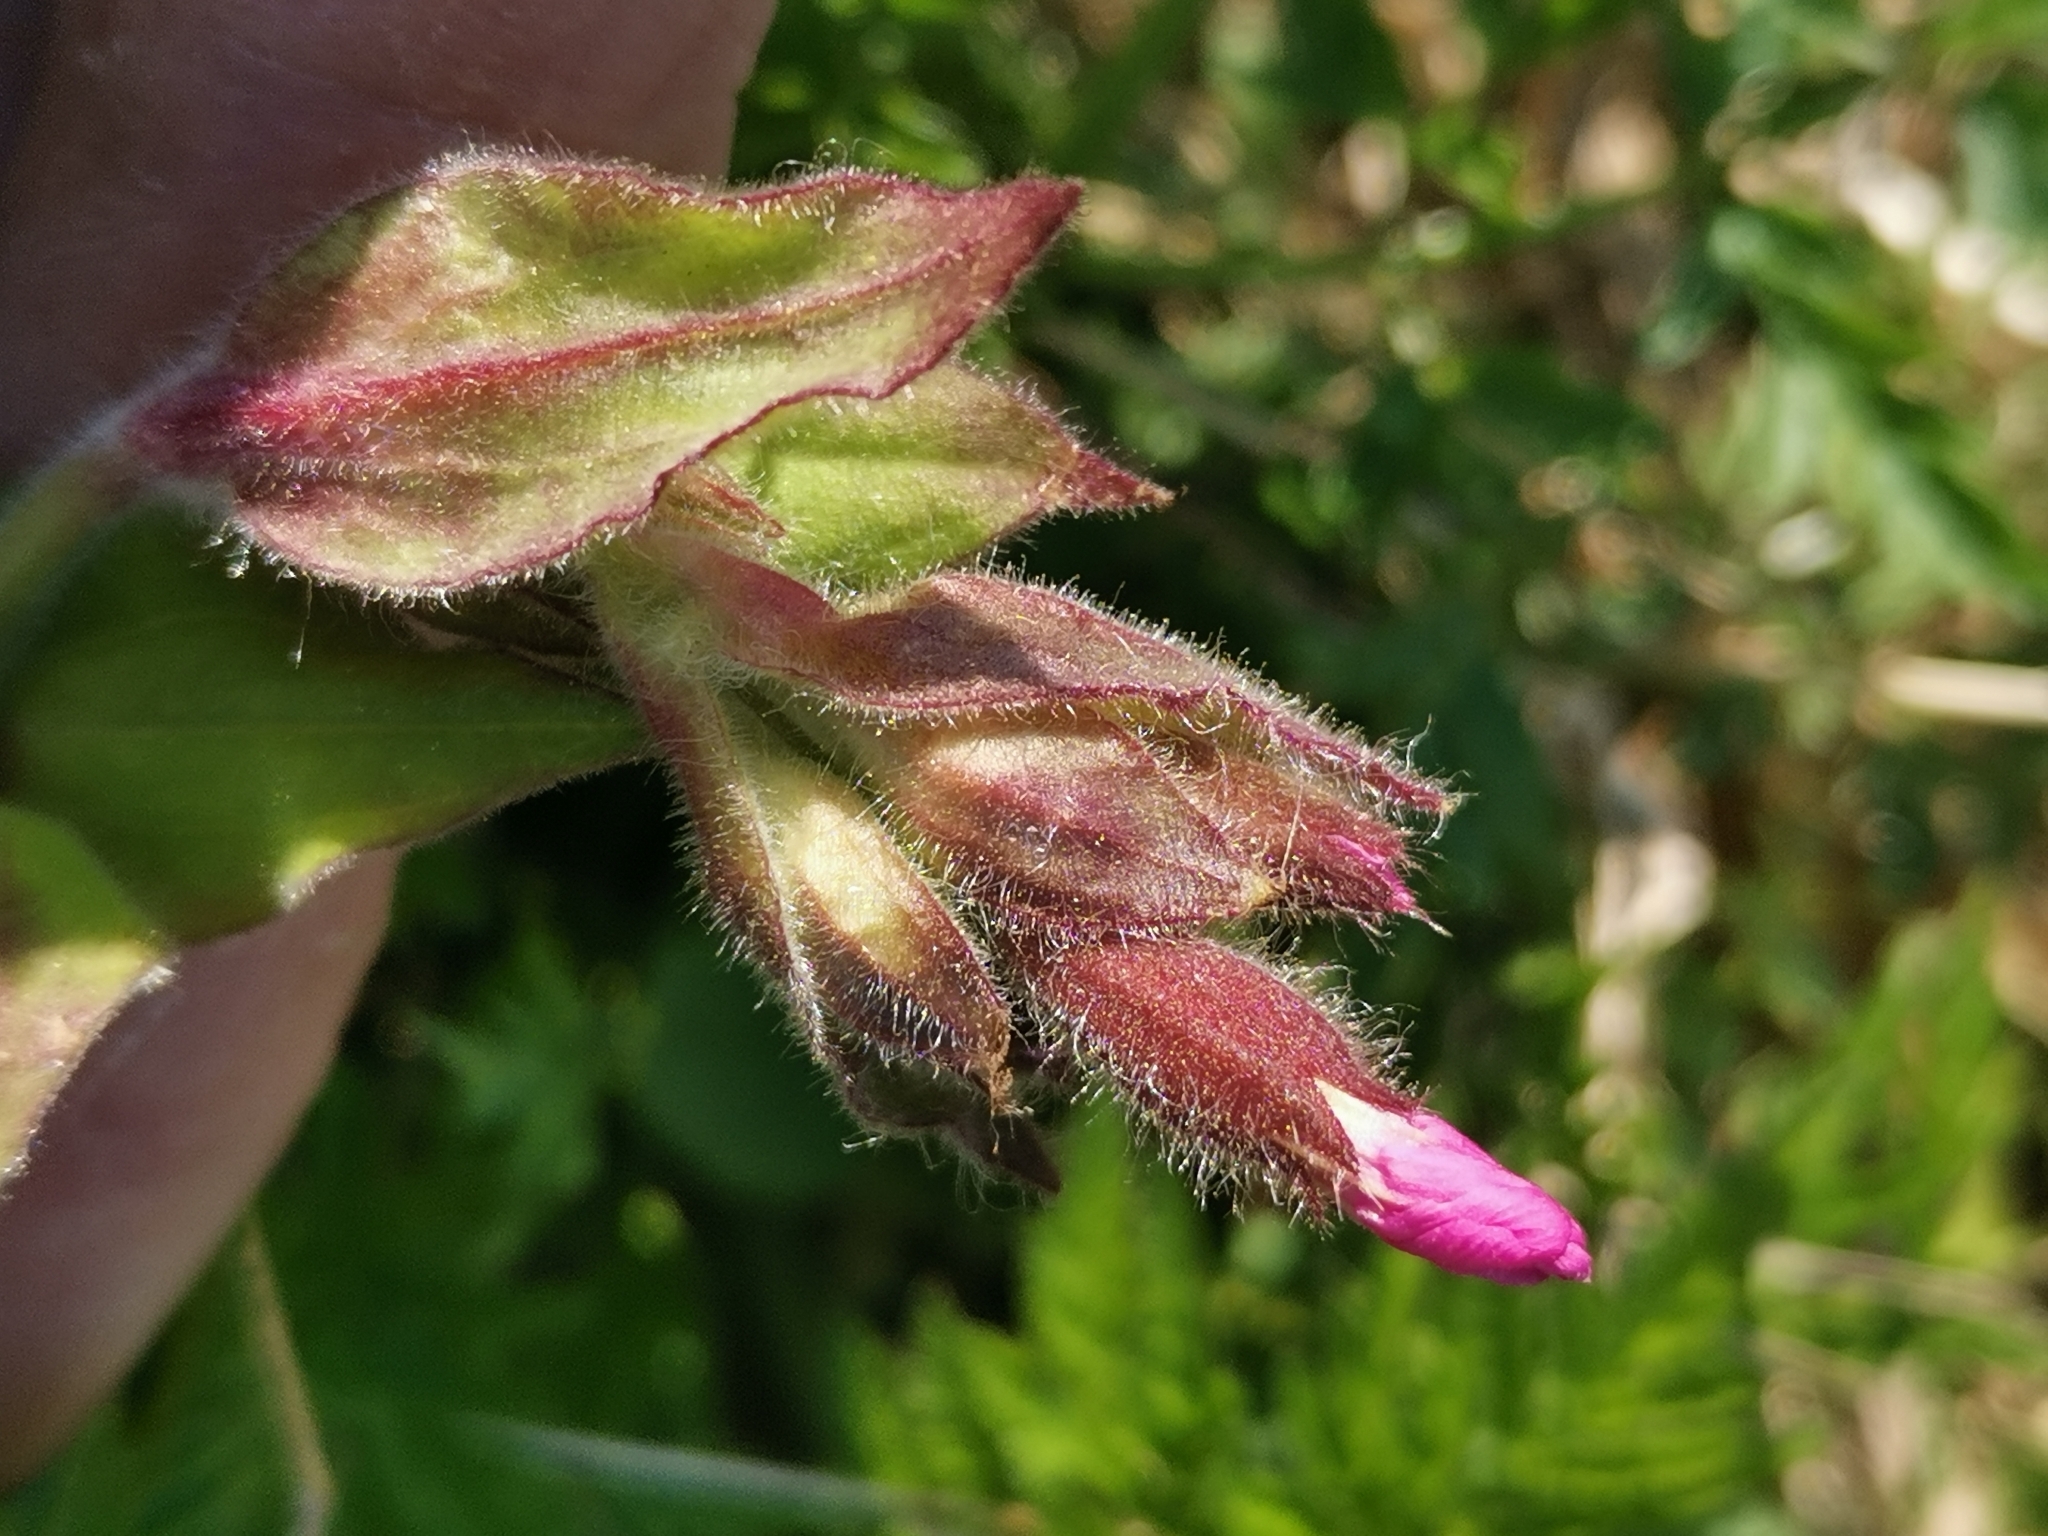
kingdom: Plantae
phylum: Tracheophyta
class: Magnoliopsida
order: Caryophyllales
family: Caryophyllaceae
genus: Silene
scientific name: Silene dioica
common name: Red campion
